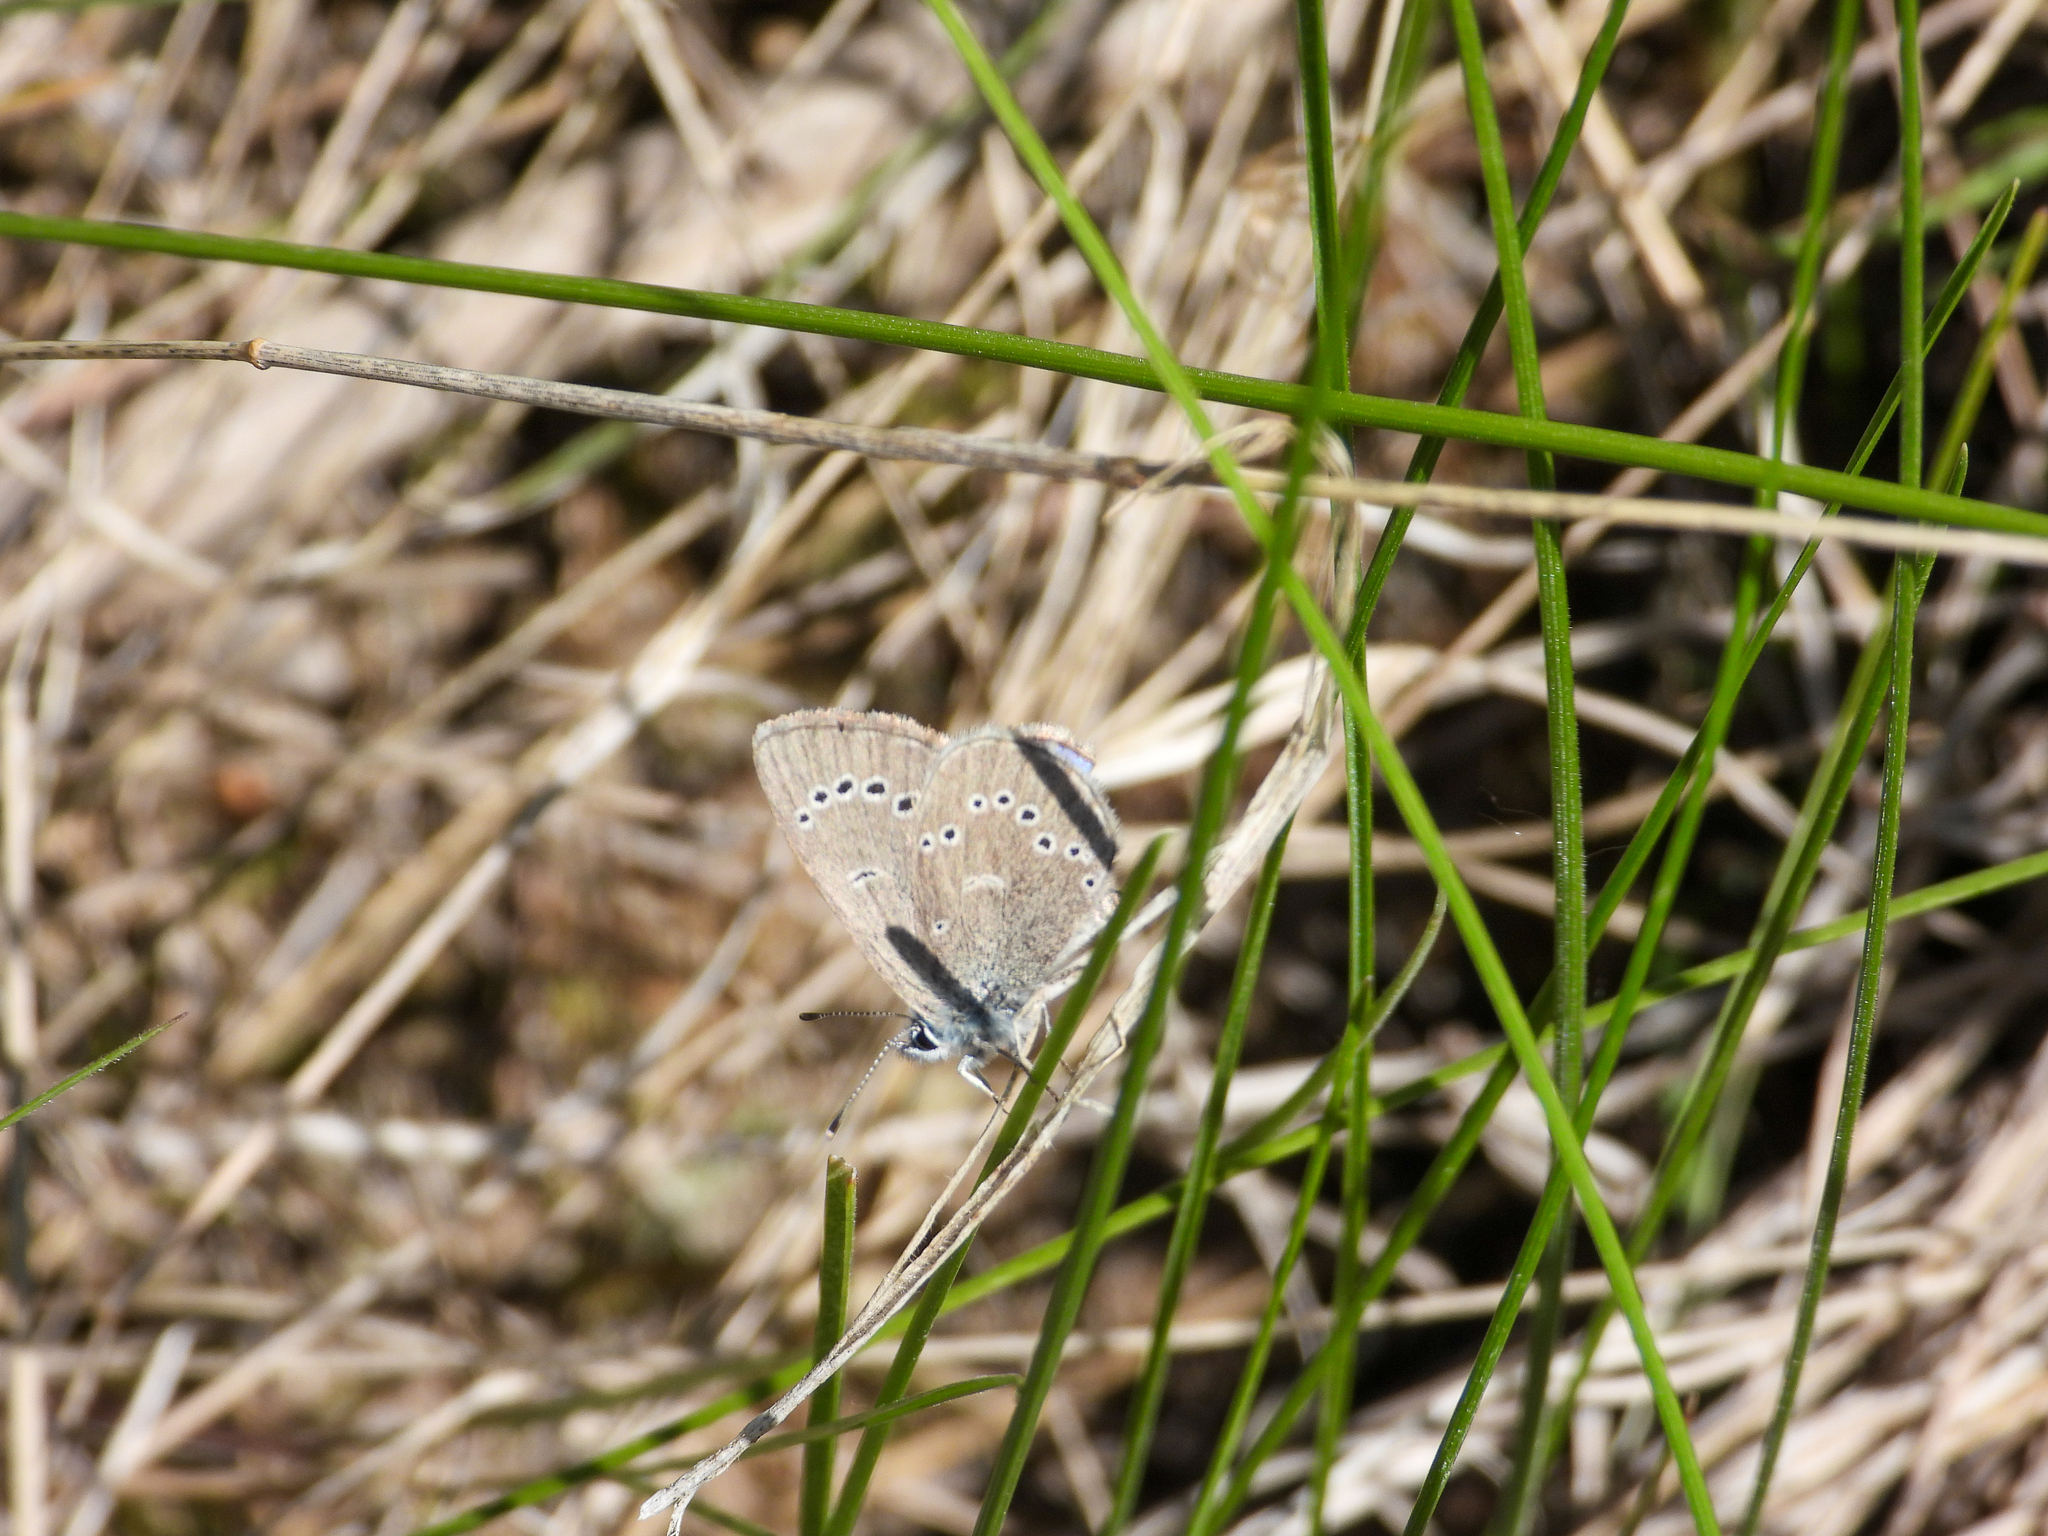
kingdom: Animalia
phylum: Arthropoda
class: Insecta
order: Lepidoptera
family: Lycaenidae
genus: Glaucopsyche
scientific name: Glaucopsyche lygdamus
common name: Silvery blue
